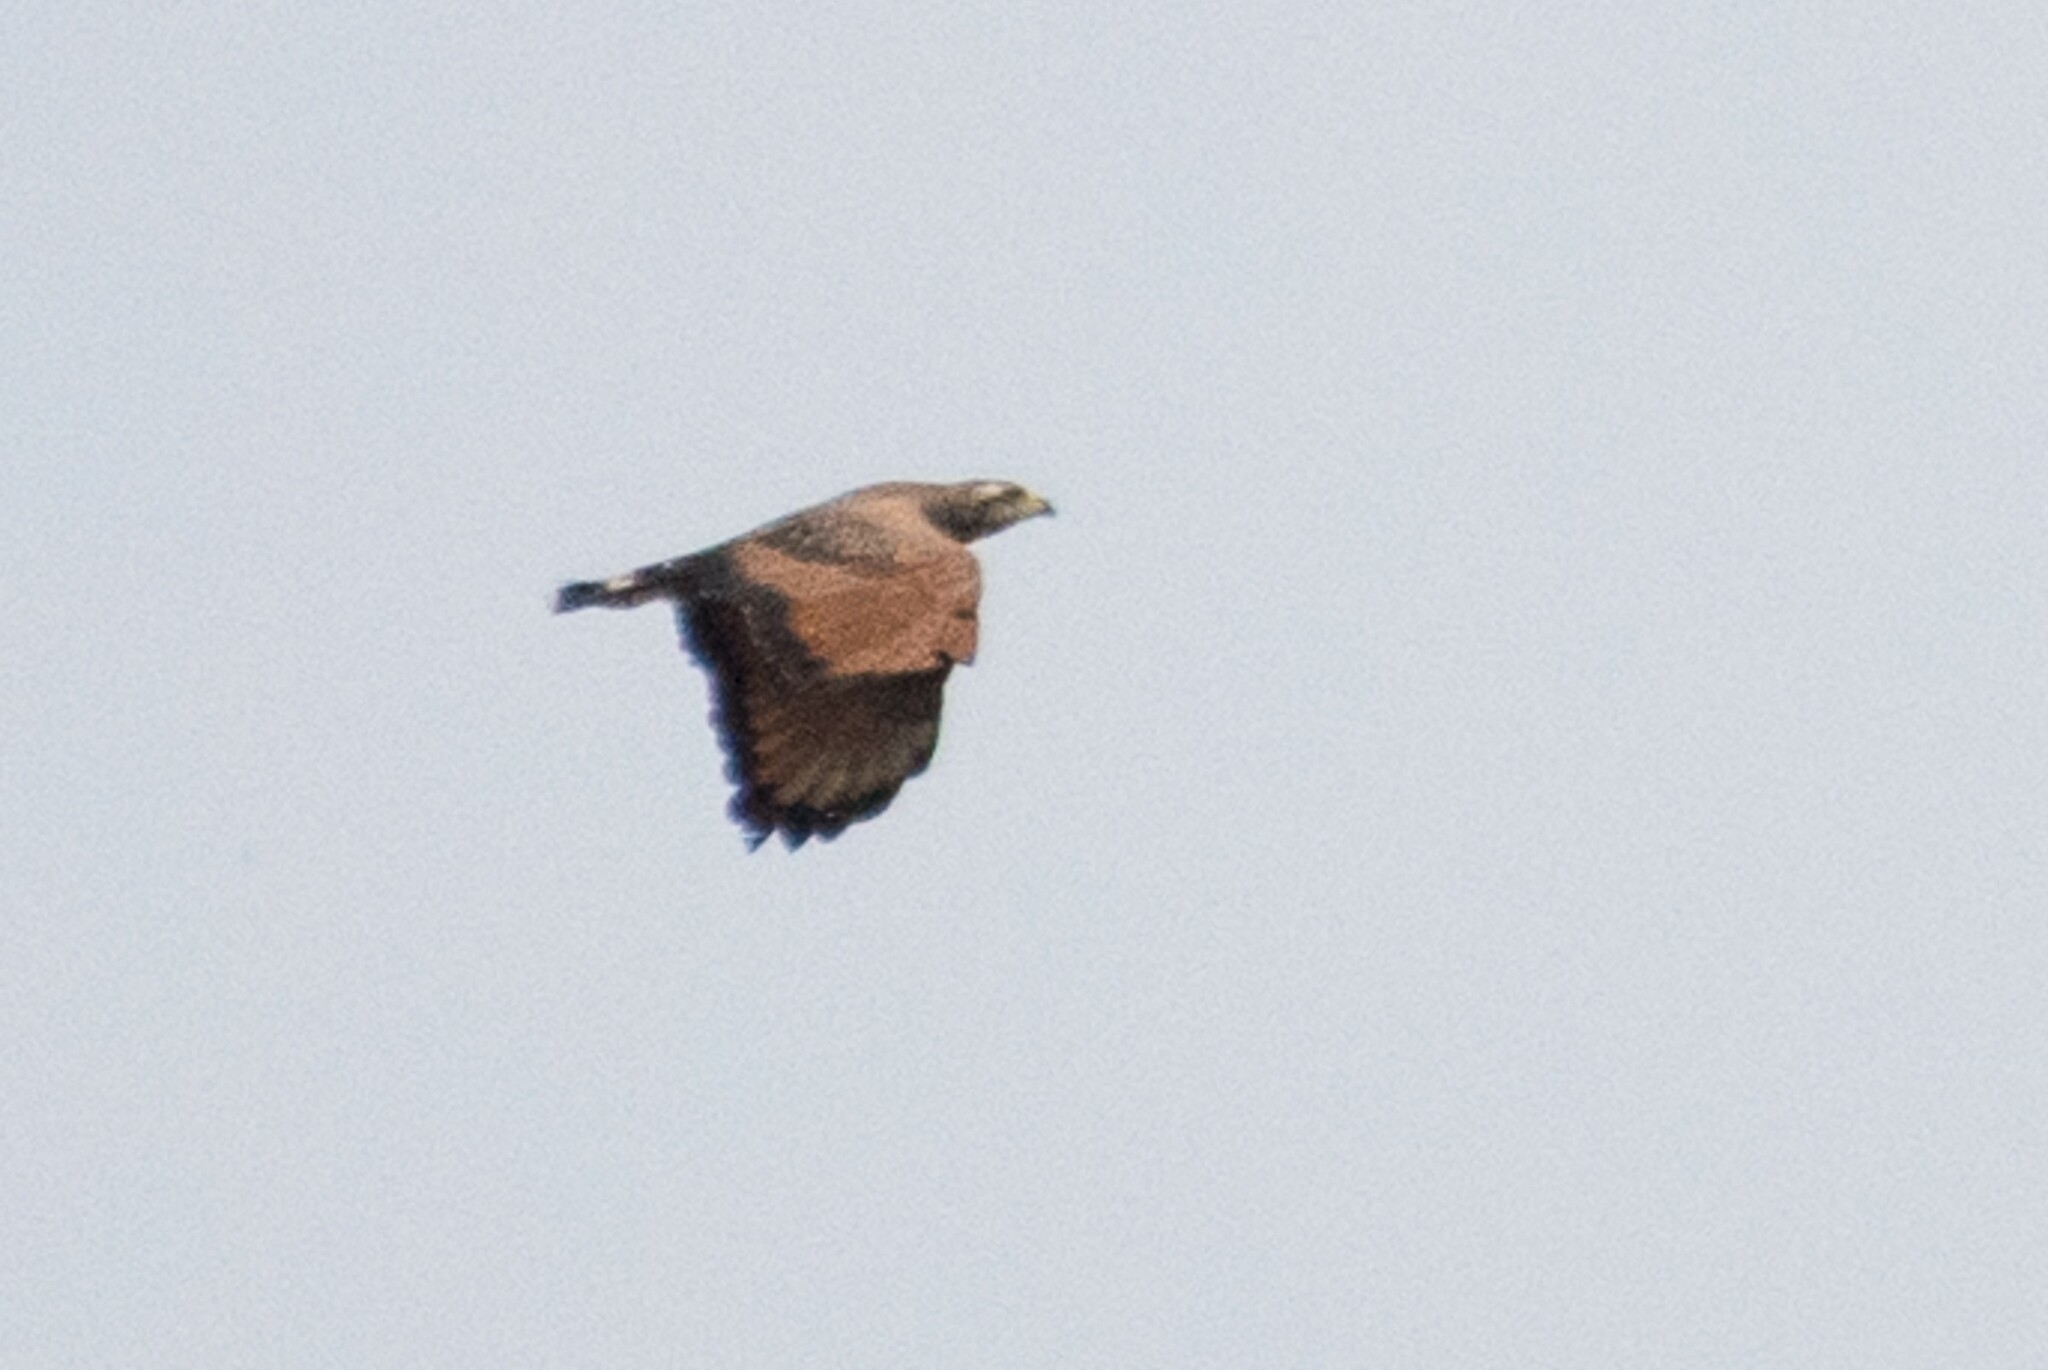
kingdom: Animalia
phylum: Chordata
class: Aves
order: Accipitriformes
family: Accipitridae
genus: Buteogallus
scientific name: Buteogallus meridionalis
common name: Savanna hawk
